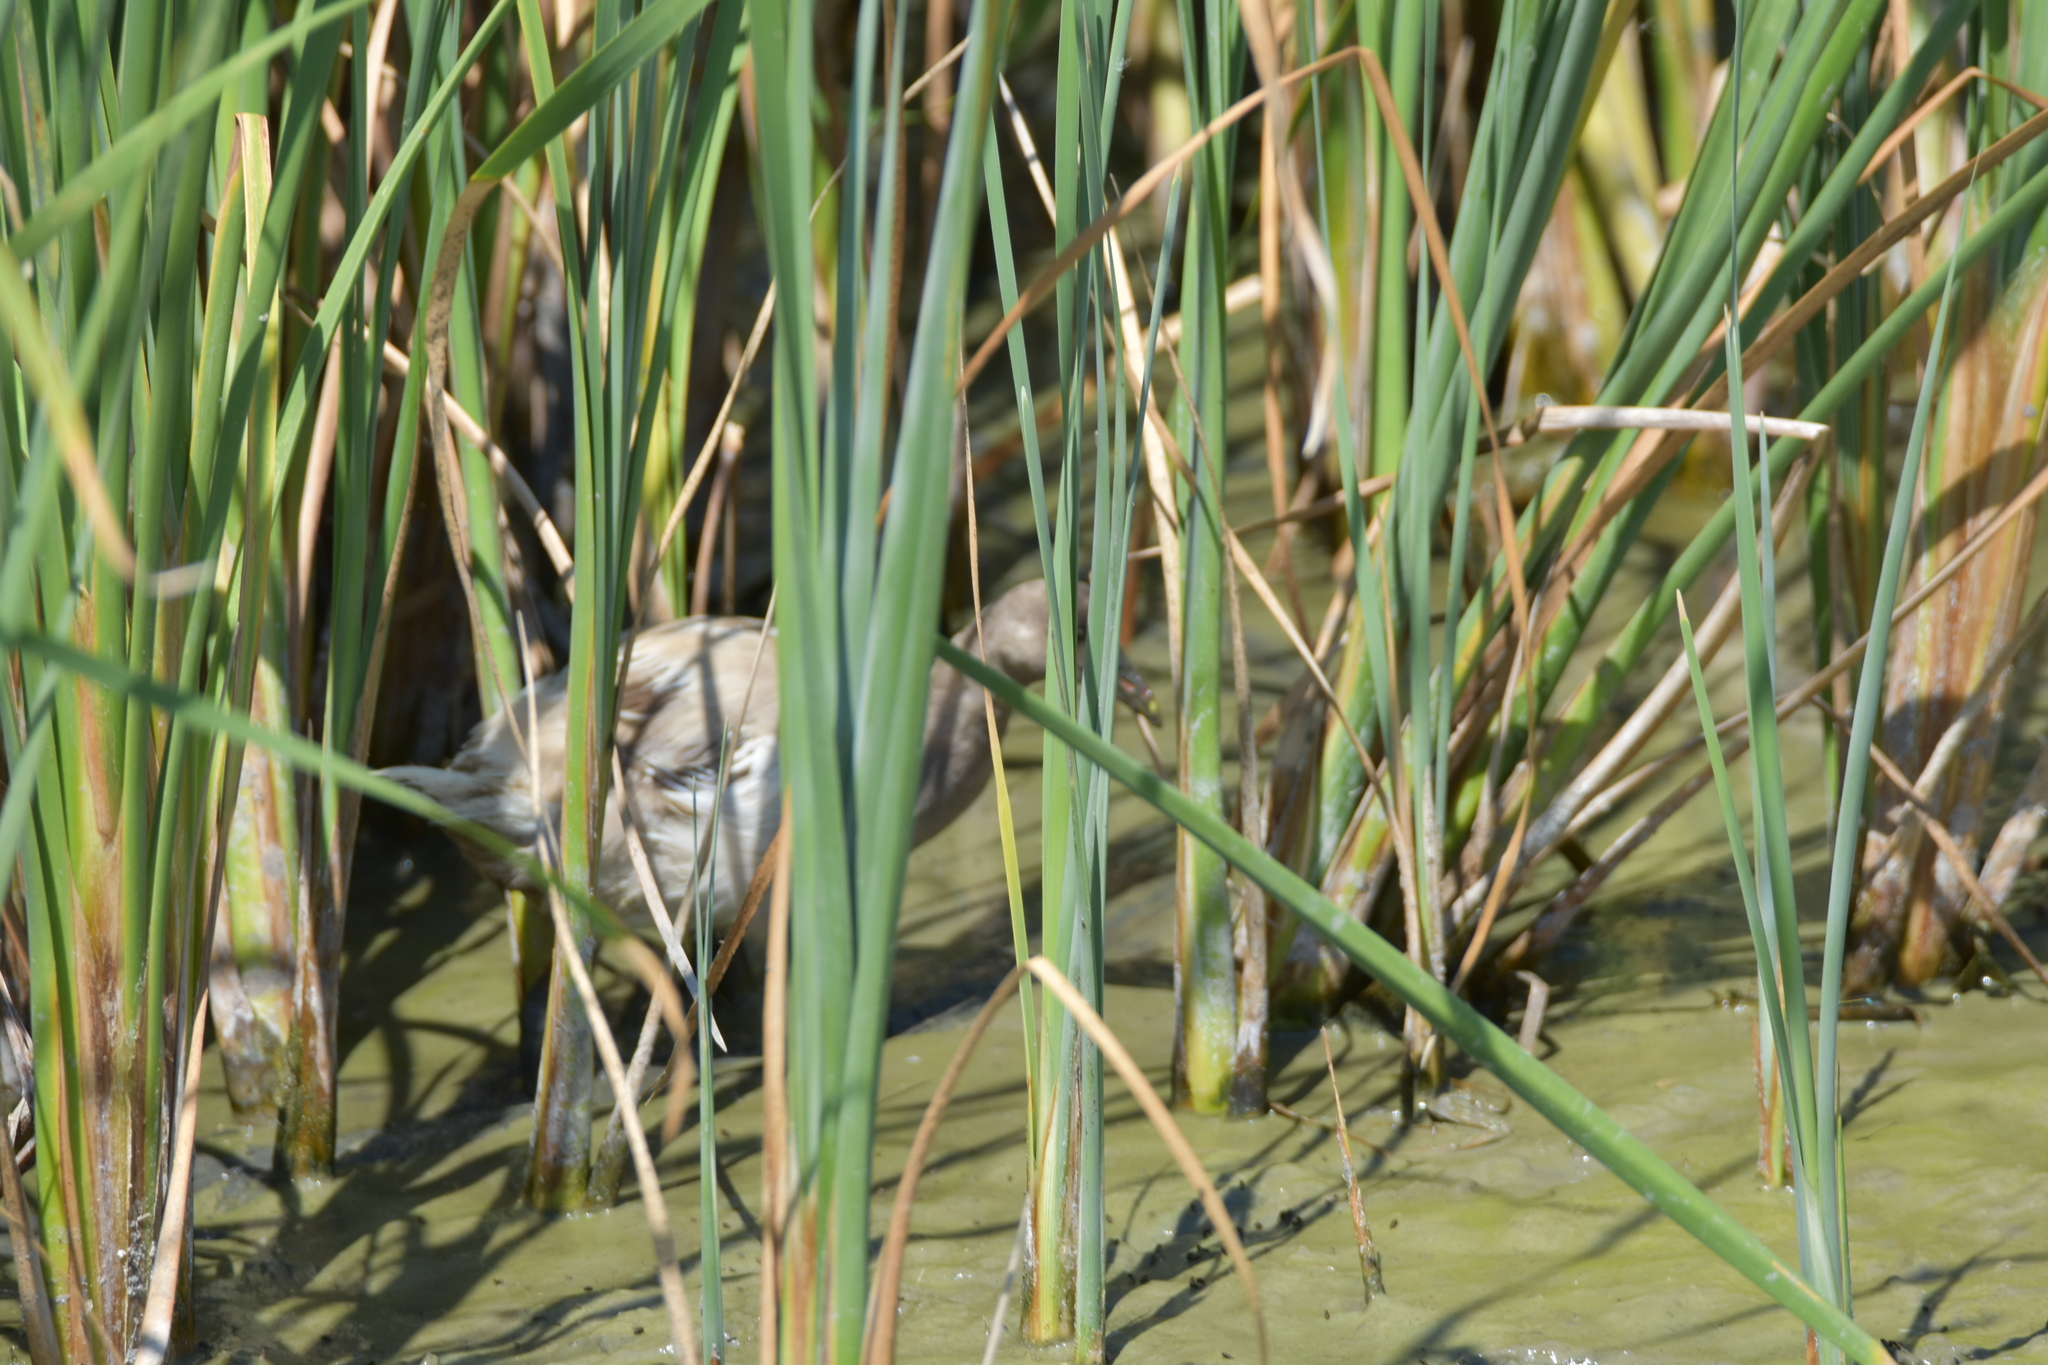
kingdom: Animalia
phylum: Chordata
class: Aves
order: Gruiformes
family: Rallidae
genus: Gallinula
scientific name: Gallinula chloropus
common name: Common moorhen
